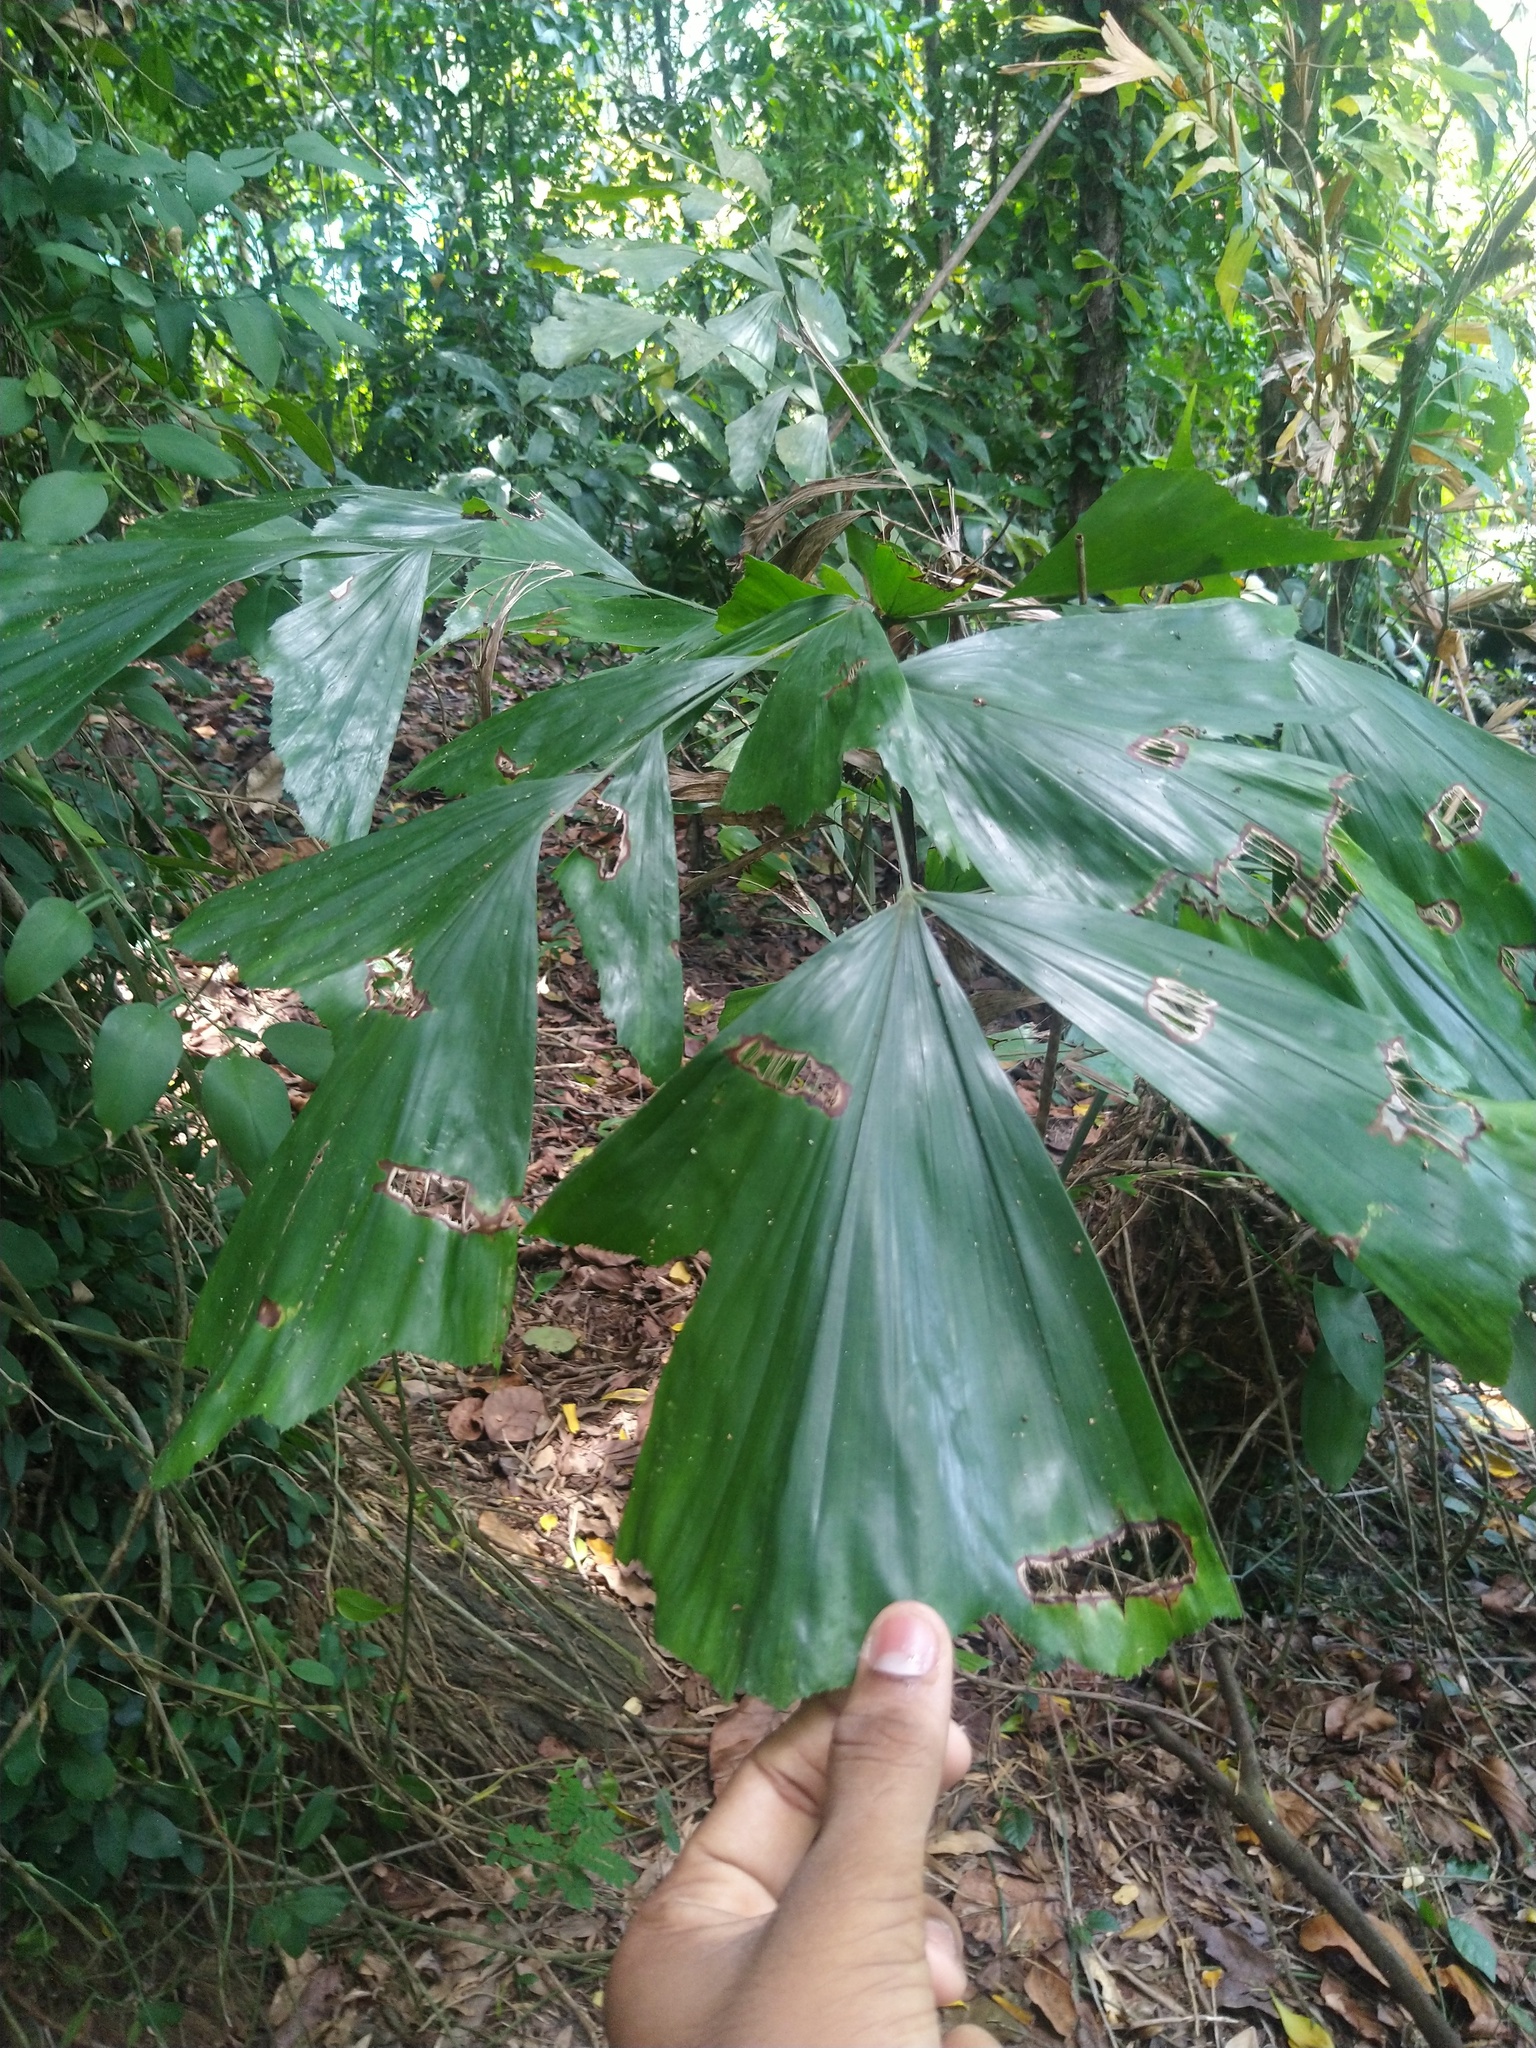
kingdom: Plantae
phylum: Tracheophyta
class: Liliopsida
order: Arecales
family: Arecaceae
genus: Caryota
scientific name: Caryota urens
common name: Jaggery palm
